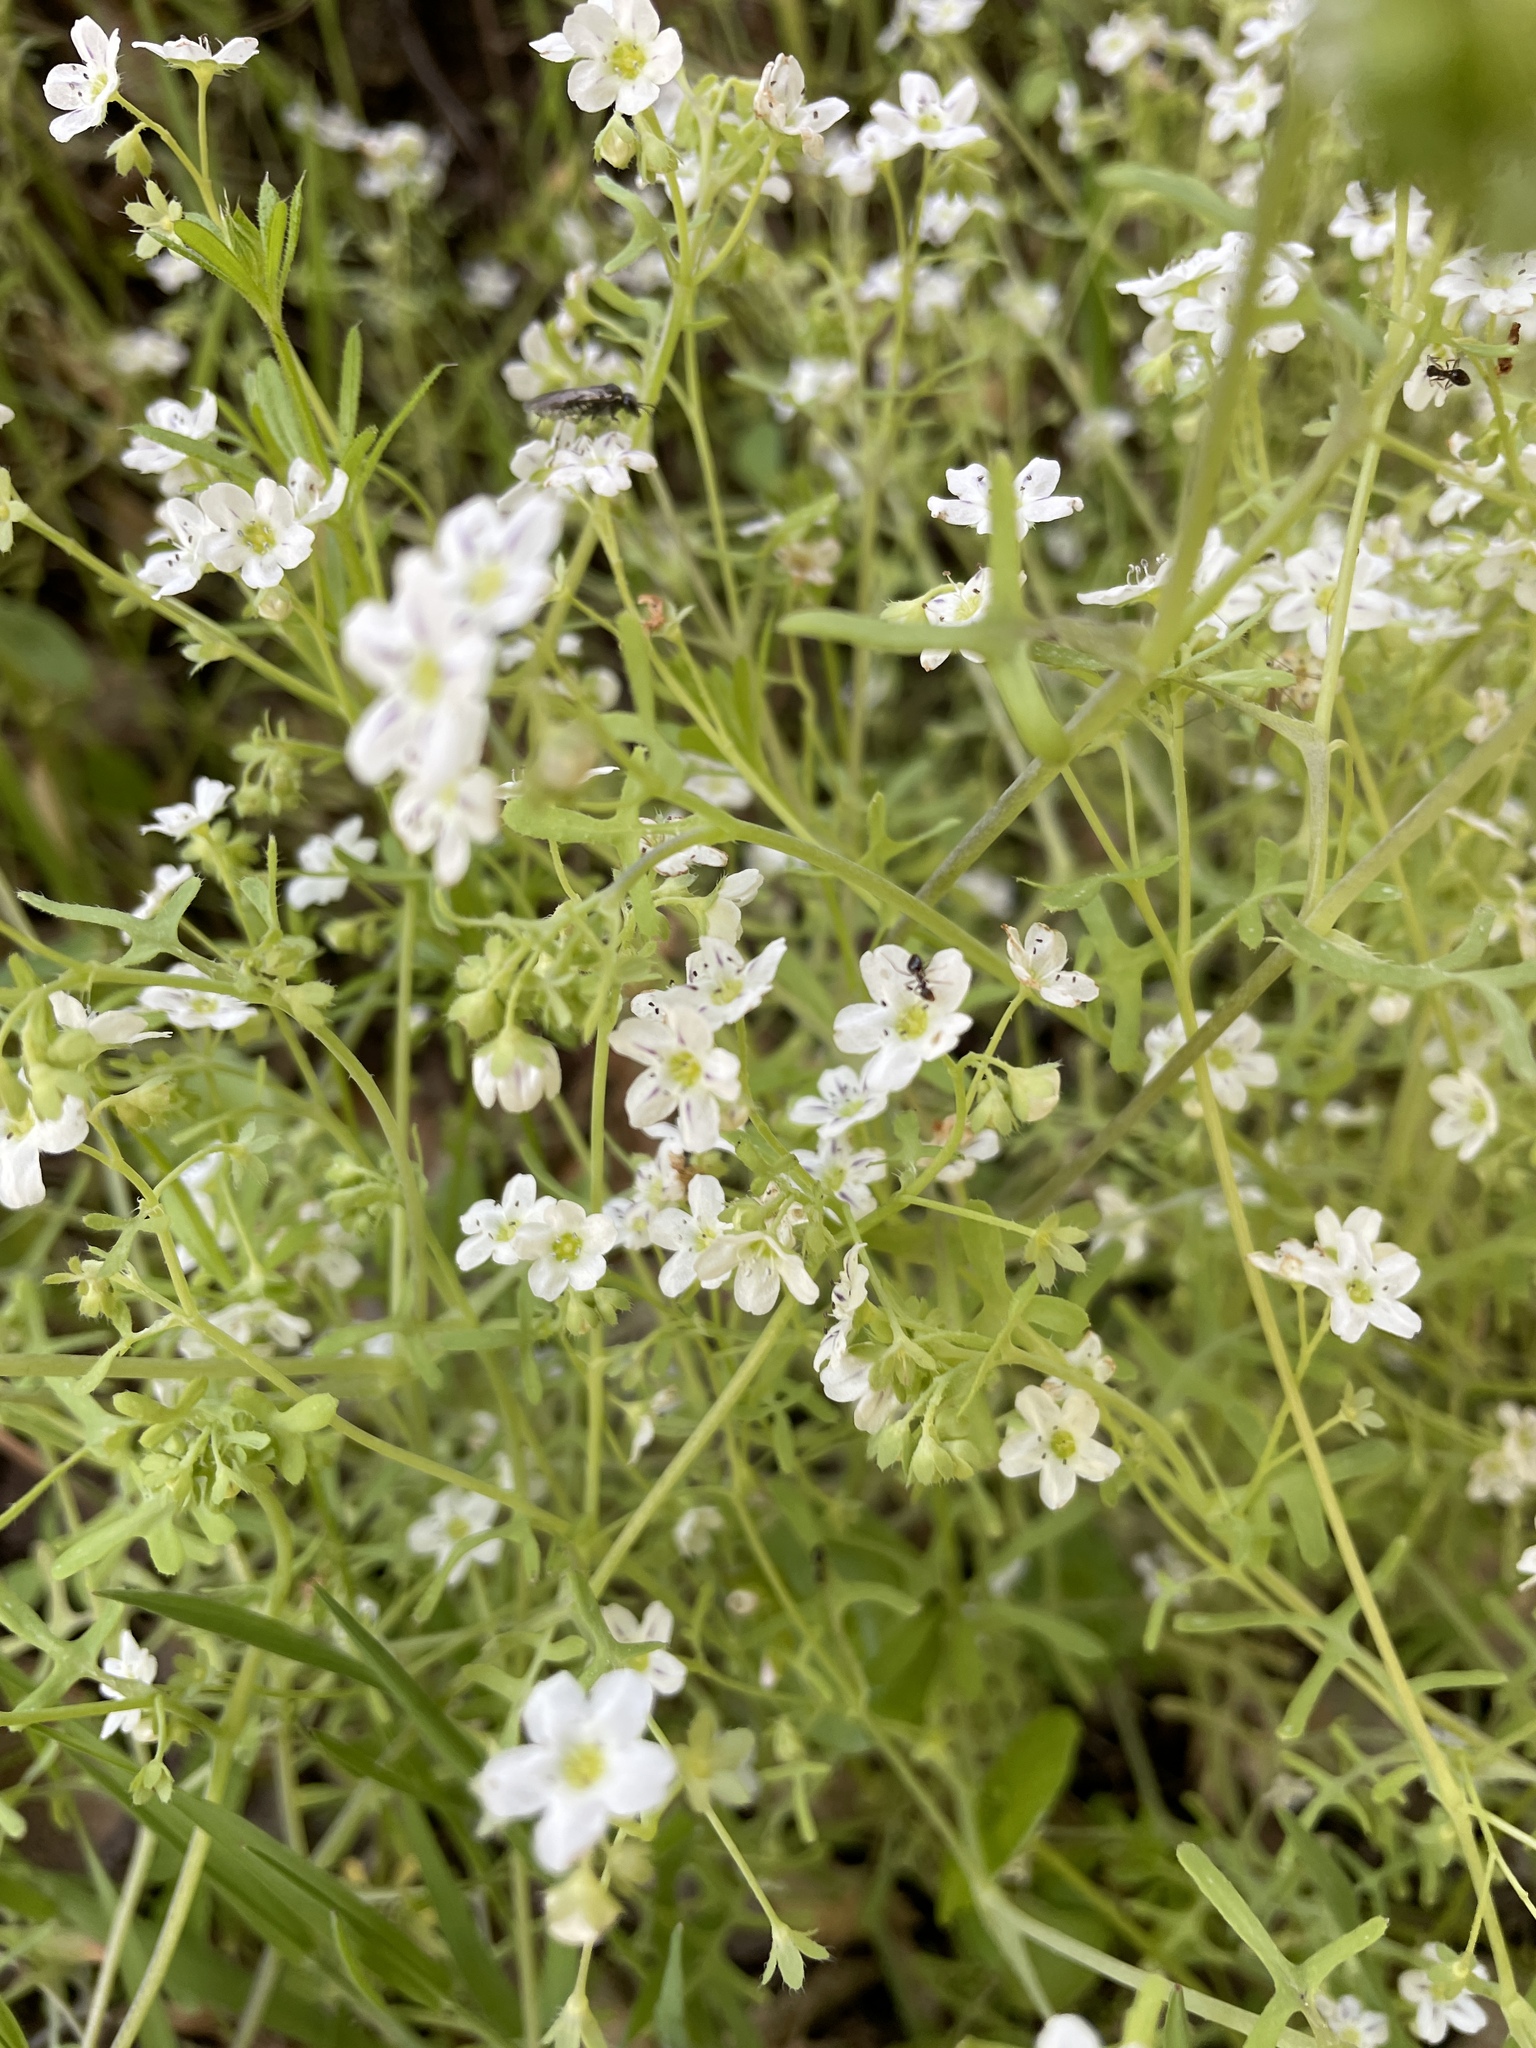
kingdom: Plantae
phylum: Tracheophyta
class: Magnoliopsida
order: Boraginales
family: Hydrophyllaceae
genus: Pholistoma
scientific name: Pholistoma membranaceum
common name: White fiesta-flower
